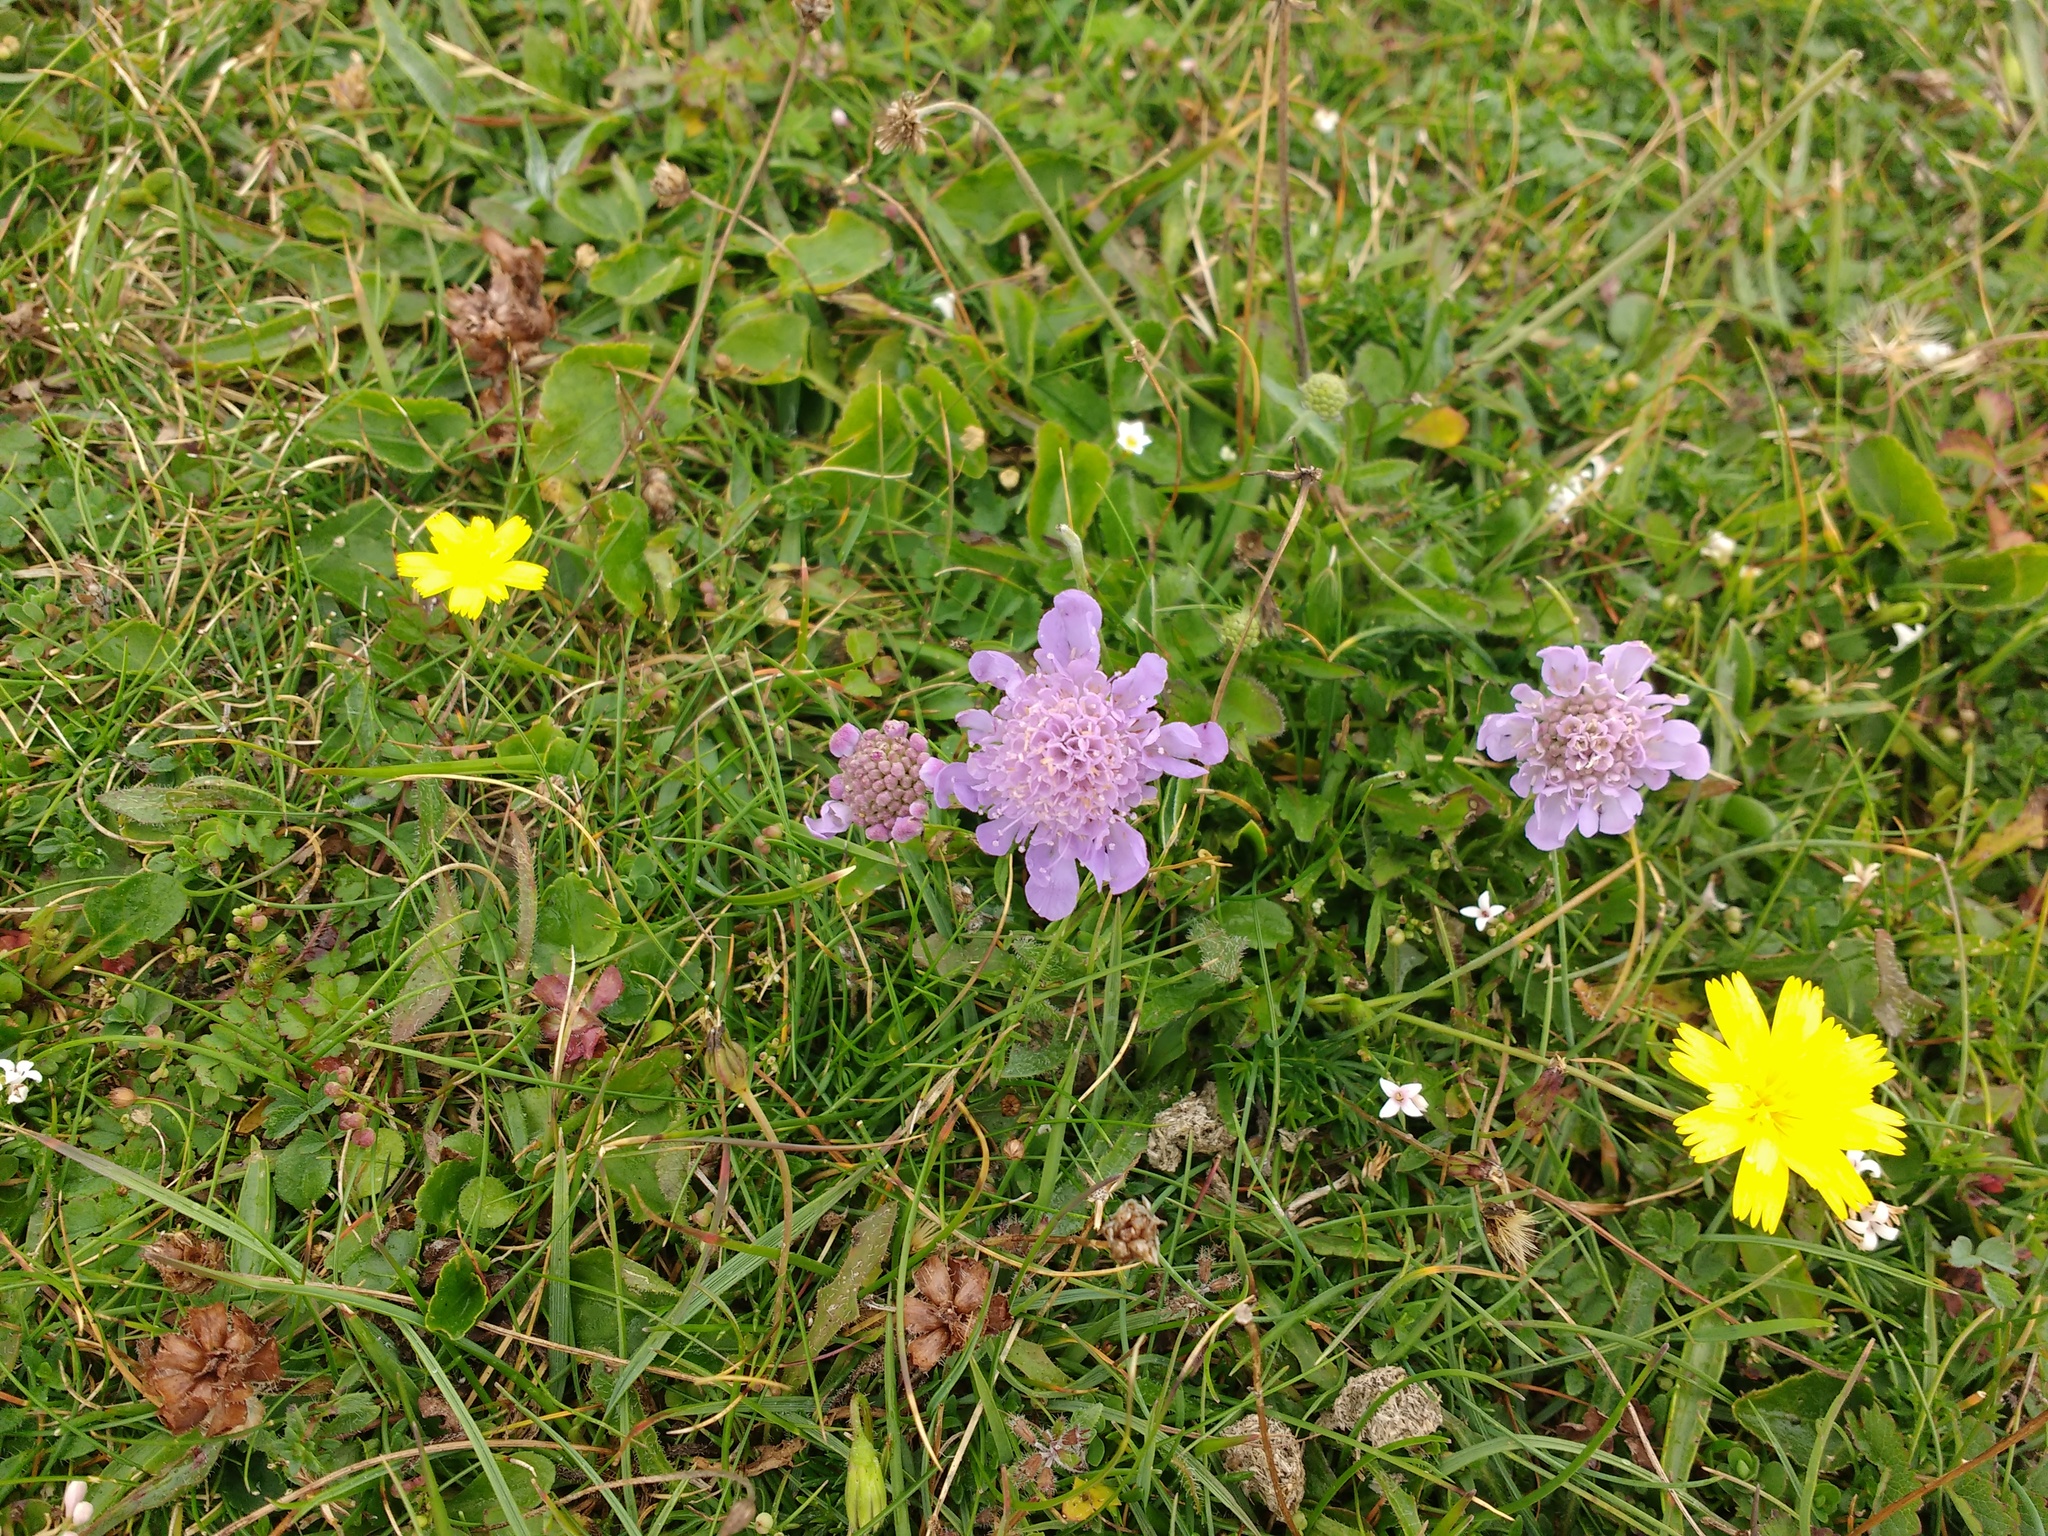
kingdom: Plantae
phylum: Tracheophyta
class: Magnoliopsida
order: Dipsacales
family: Caprifoliaceae
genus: Scabiosa
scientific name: Scabiosa columbaria
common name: Small scabious
